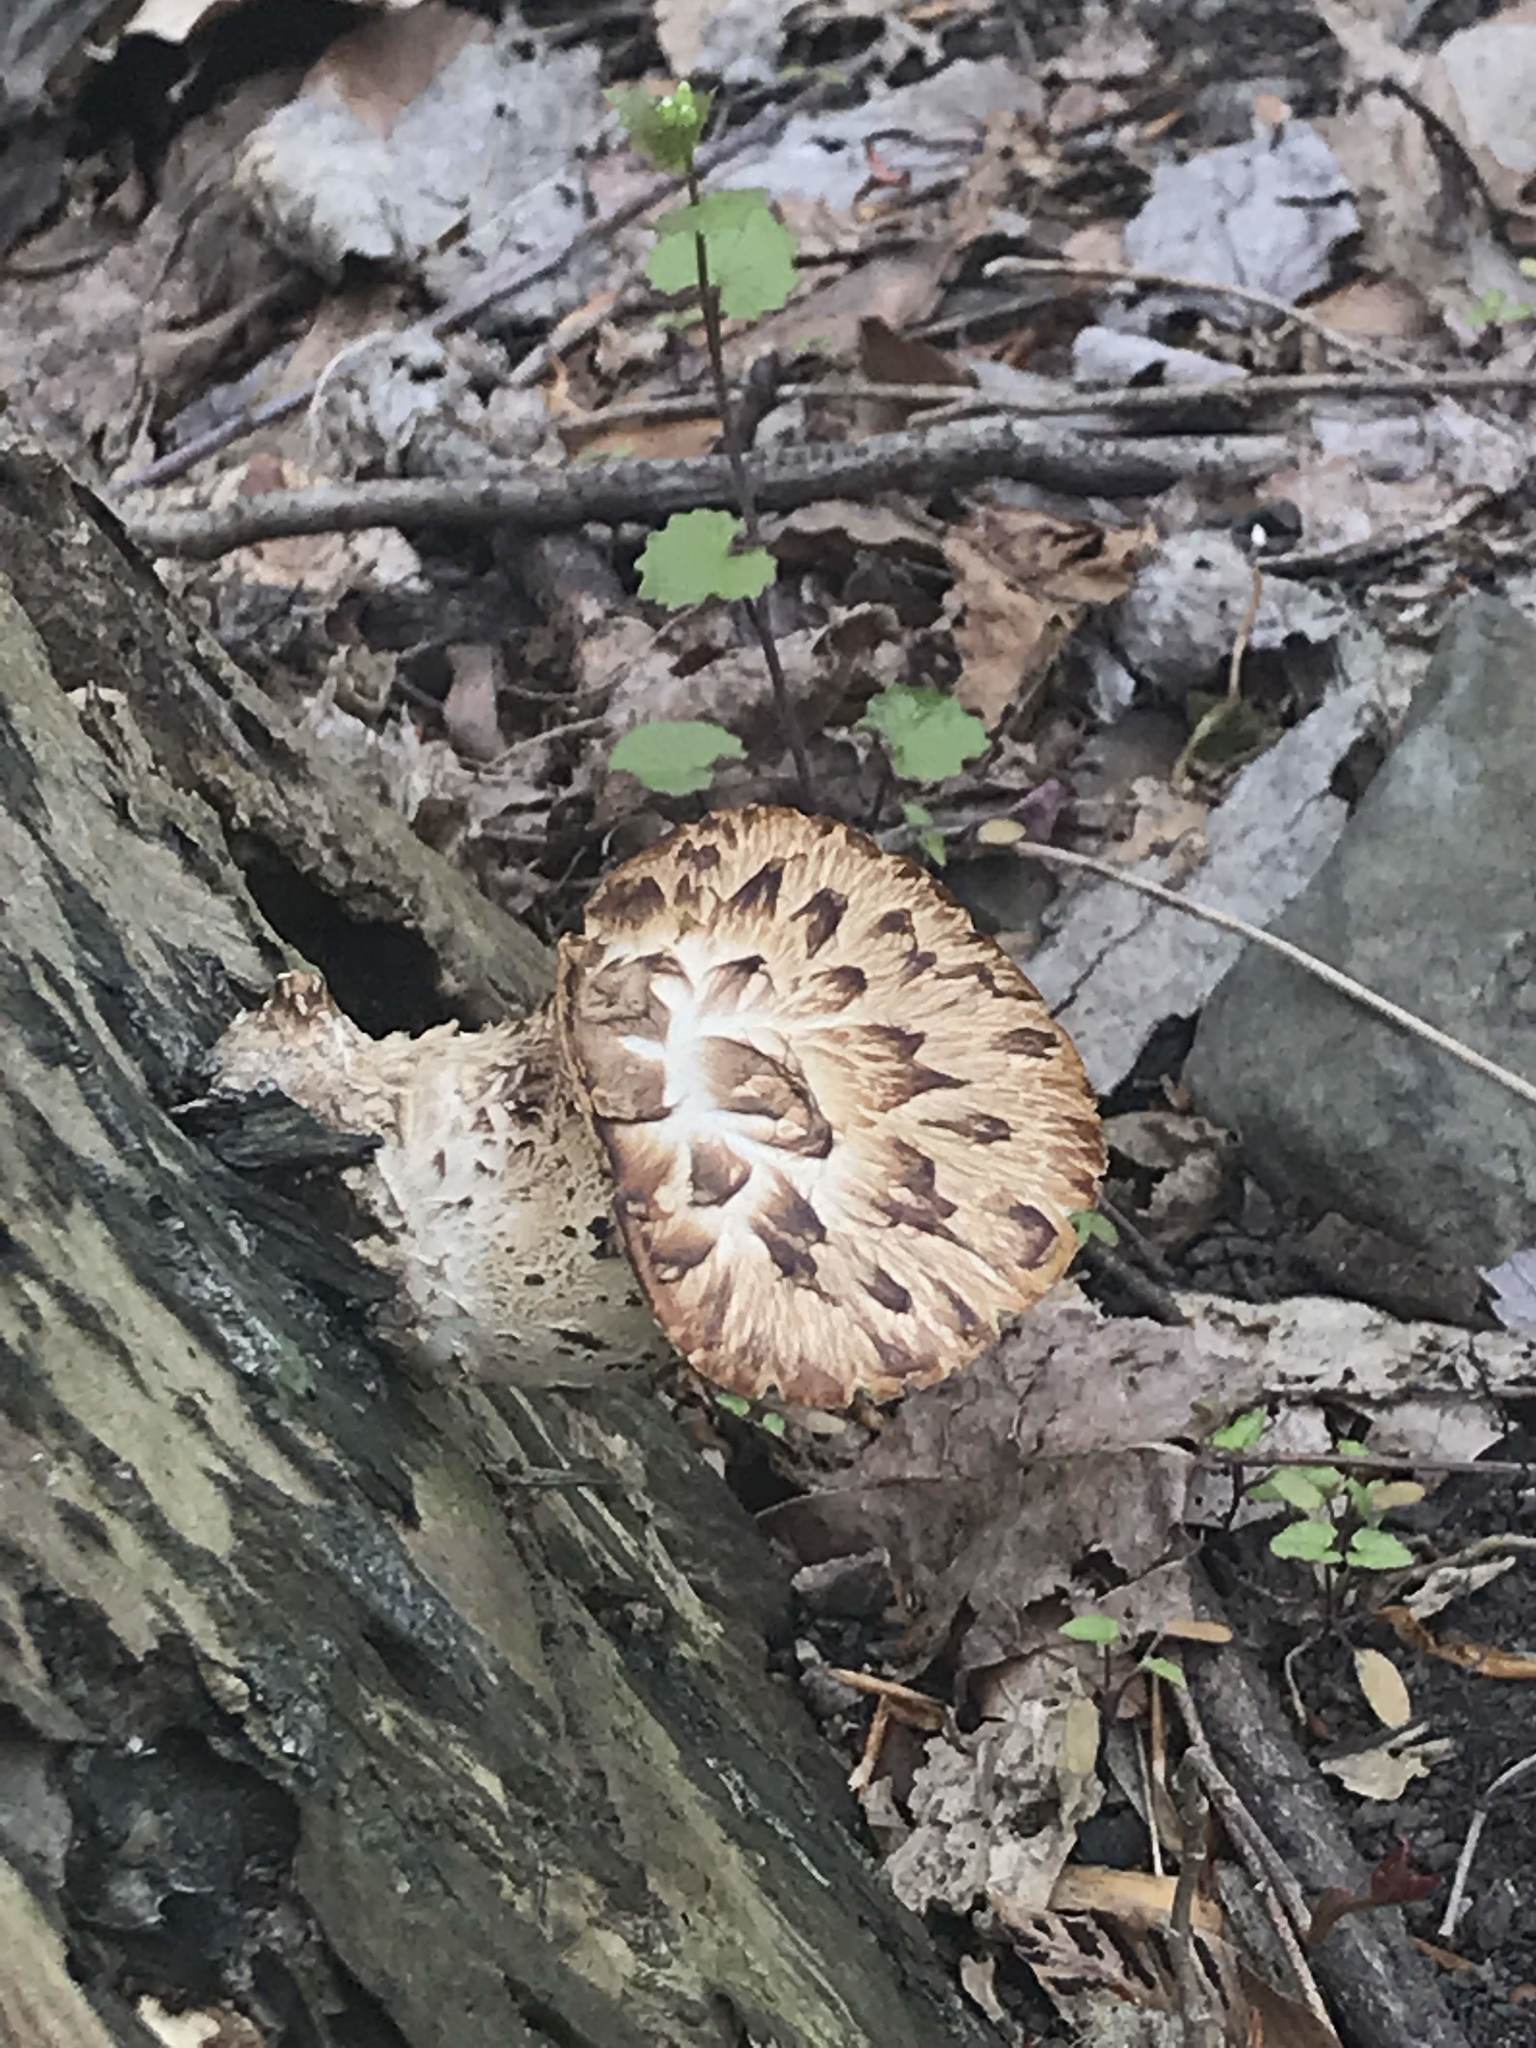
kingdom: Fungi
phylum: Basidiomycota
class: Agaricomycetes
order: Polyporales
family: Polyporaceae
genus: Cerioporus
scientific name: Cerioporus squamosus
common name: Dryad's saddle
